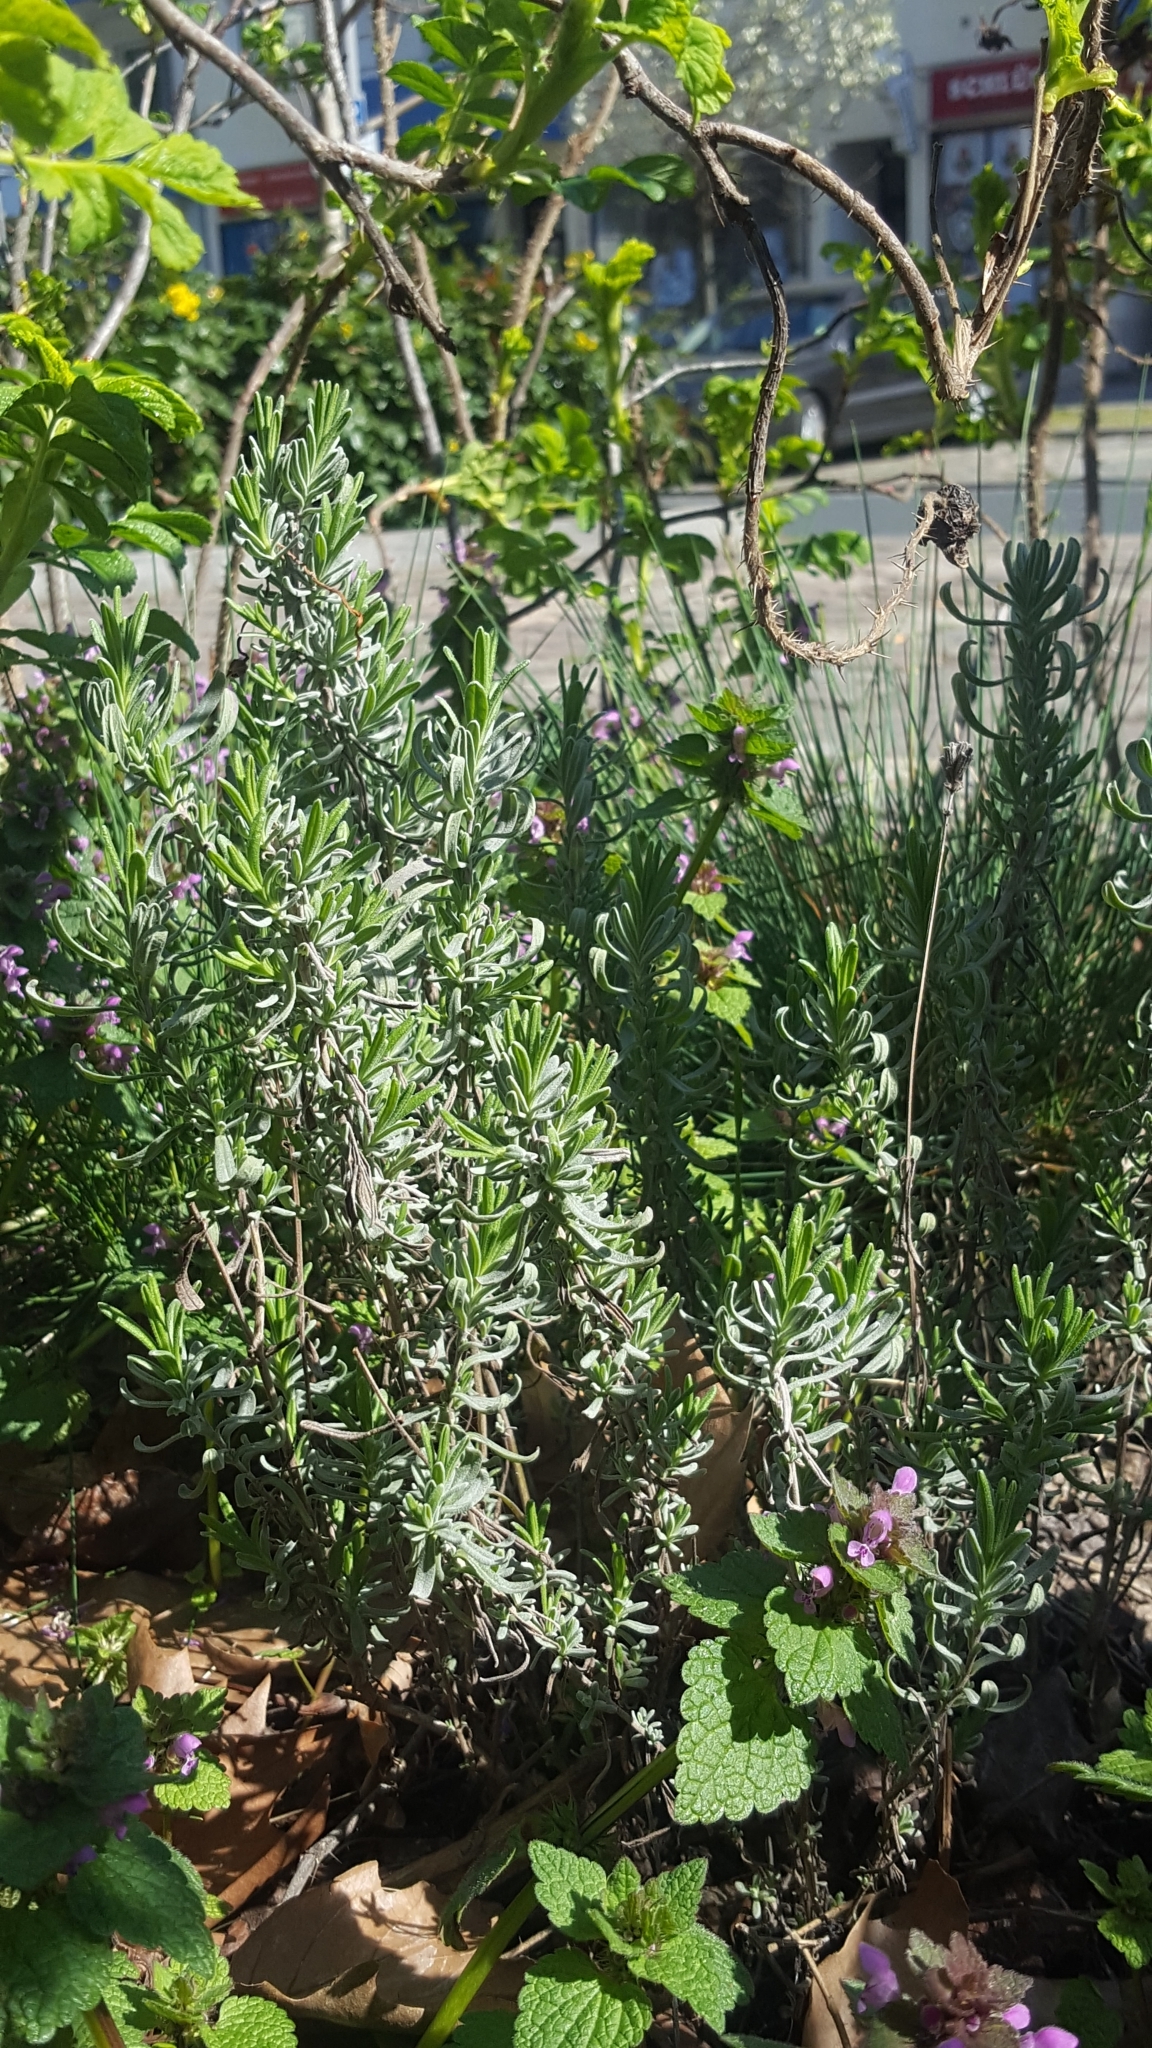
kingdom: Plantae
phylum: Tracheophyta
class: Magnoliopsida
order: Lamiales
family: Lamiaceae
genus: Lamium
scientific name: Lamium purpureum
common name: Red dead-nettle
